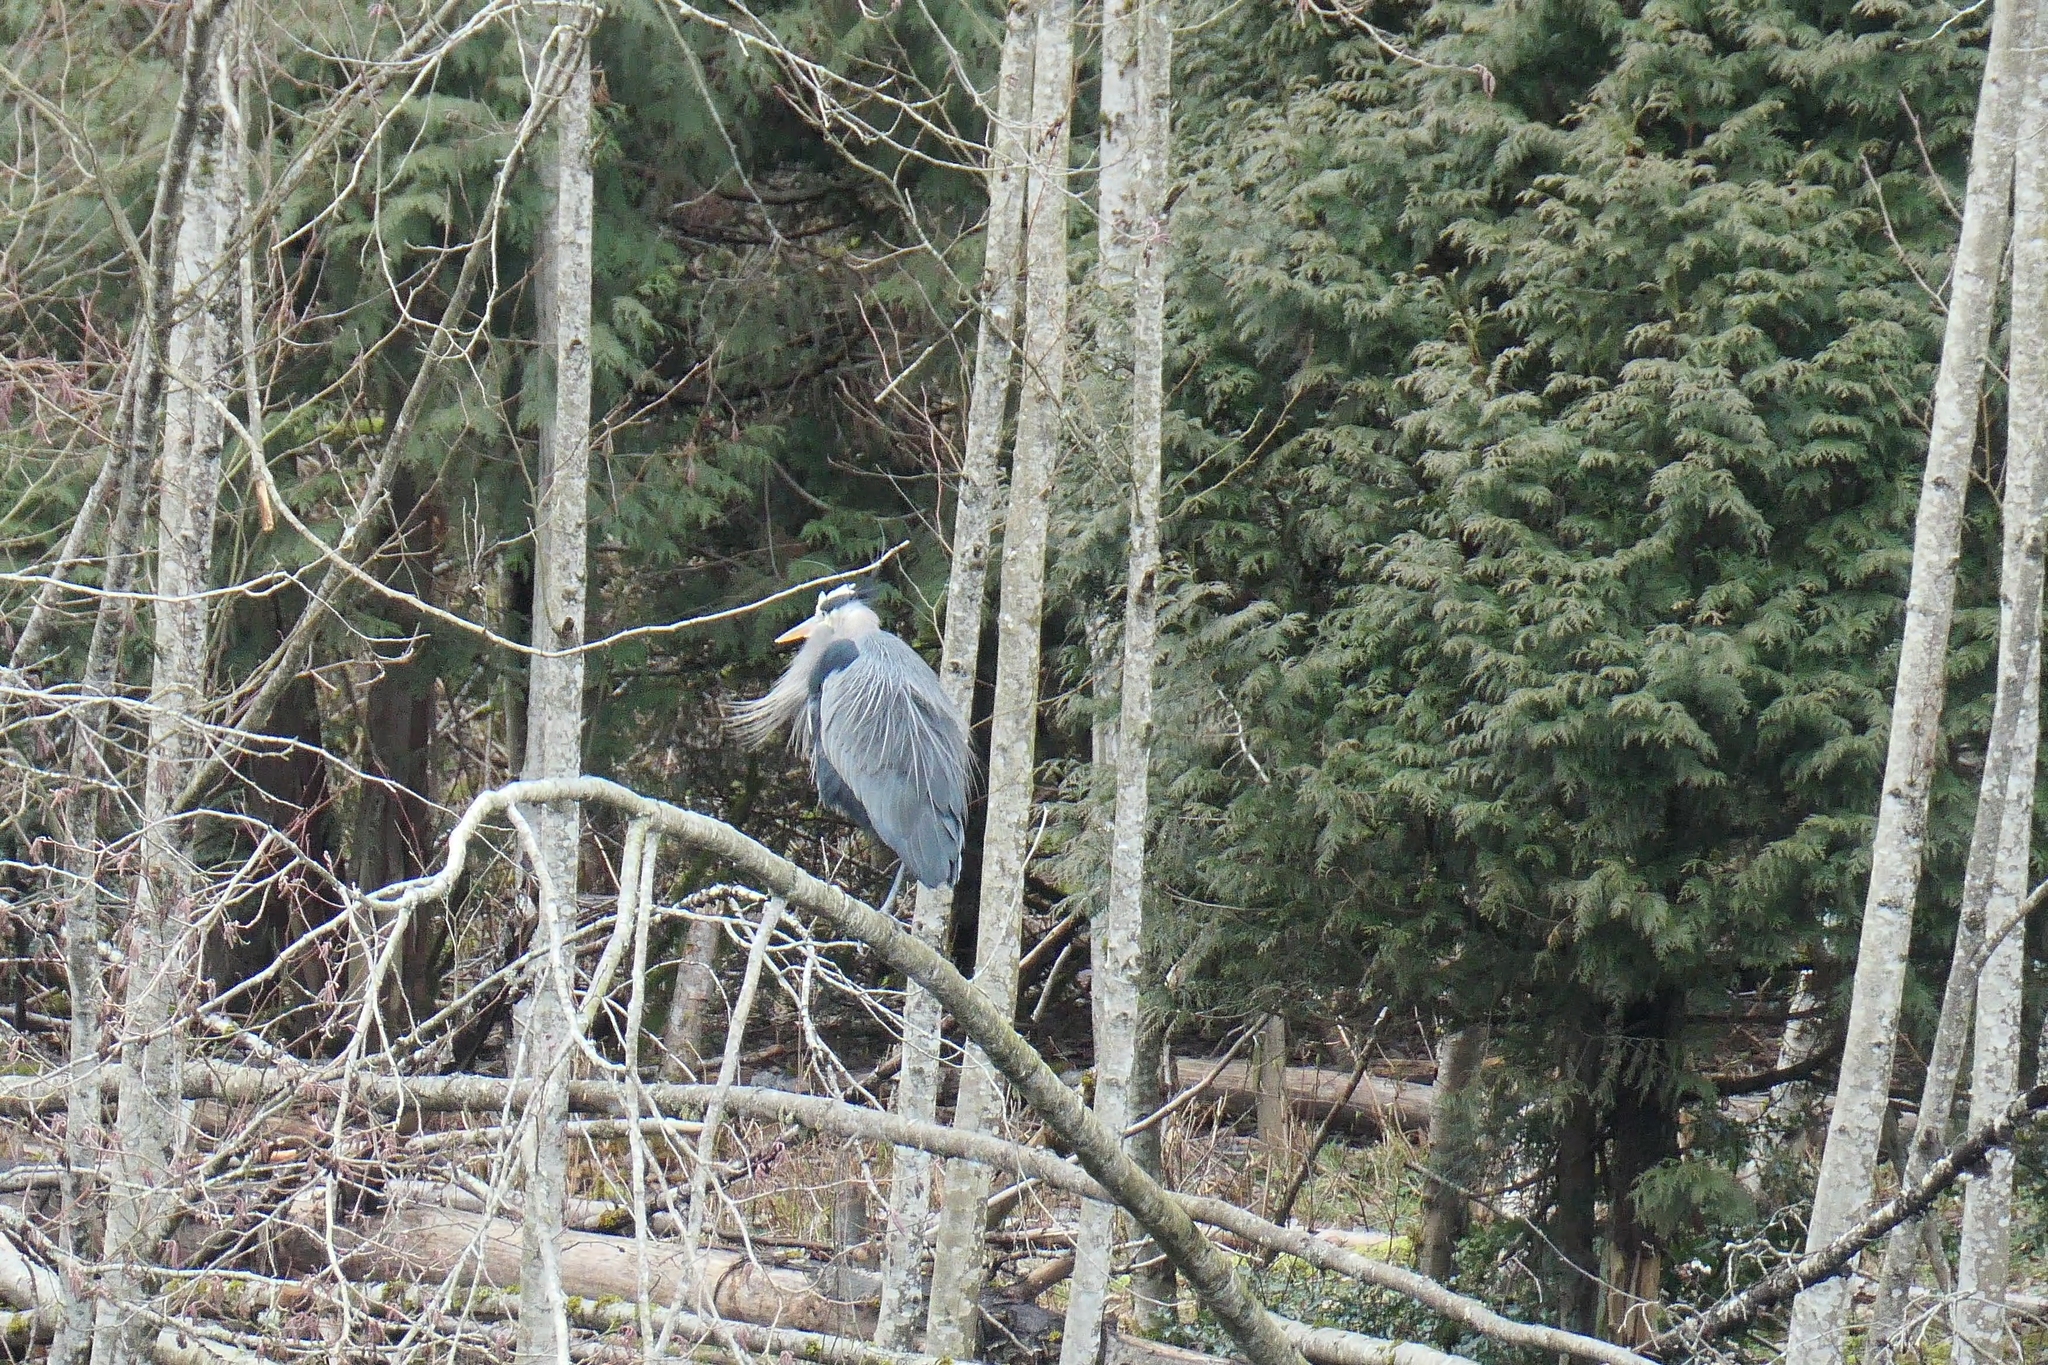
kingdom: Animalia
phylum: Chordata
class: Aves
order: Pelecaniformes
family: Ardeidae
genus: Ardea
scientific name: Ardea herodias
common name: Great blue heron
